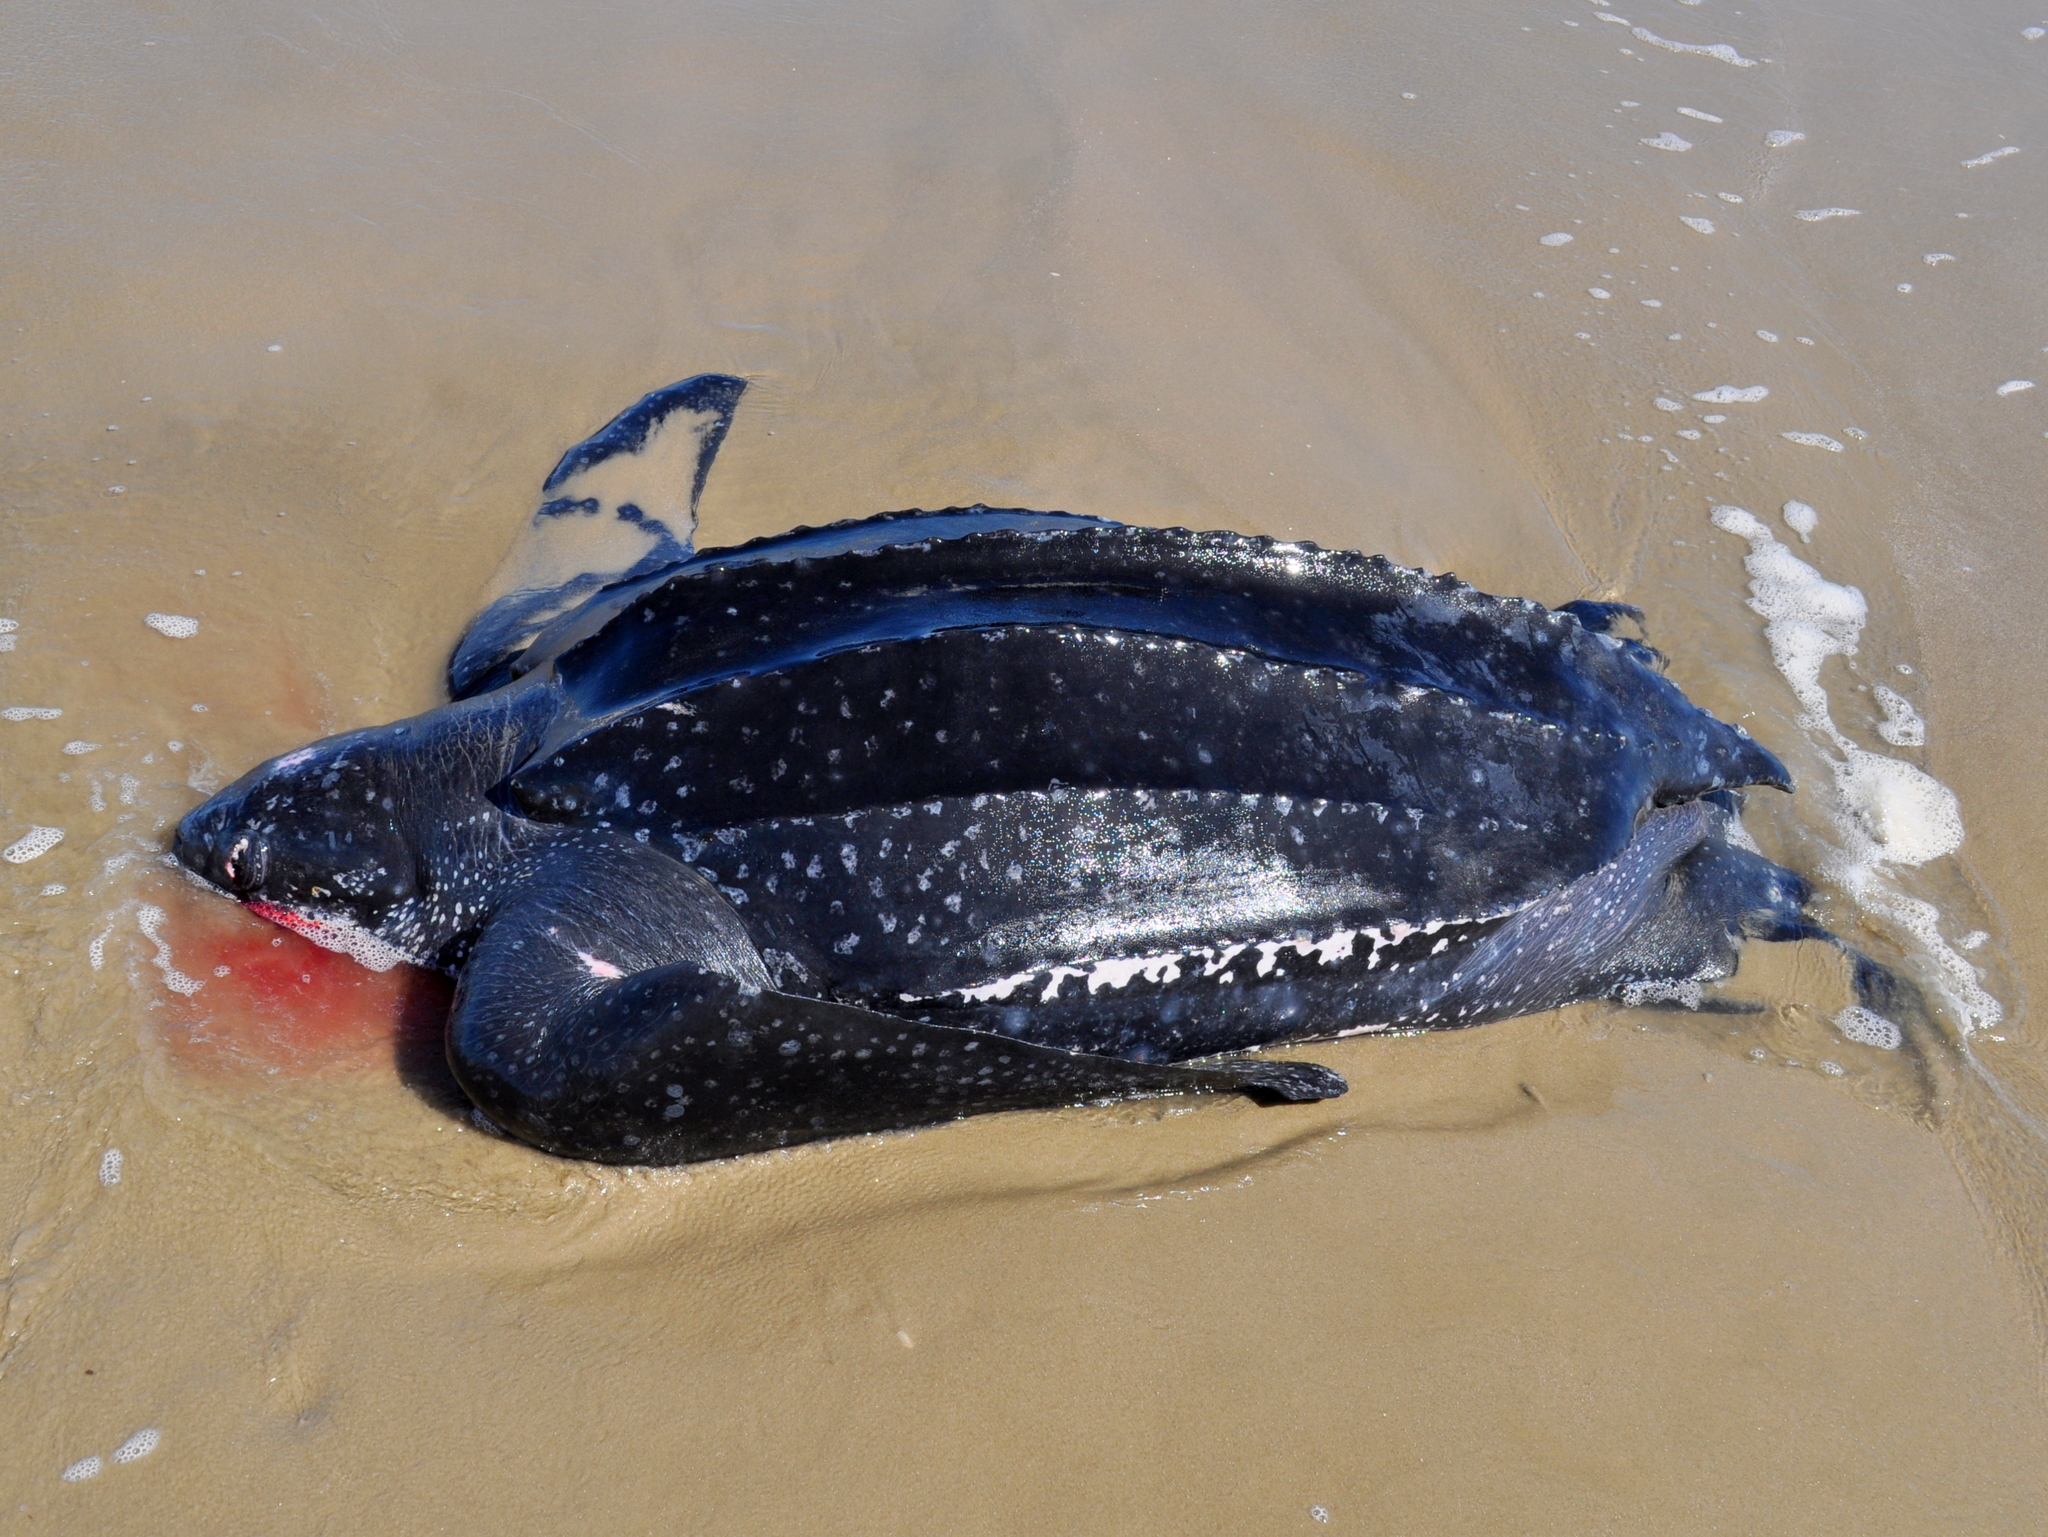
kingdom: Animalia
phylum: Chordata
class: Testudines
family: Dermochelyidae
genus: Dermochelys
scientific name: Dermochelys coriacea
